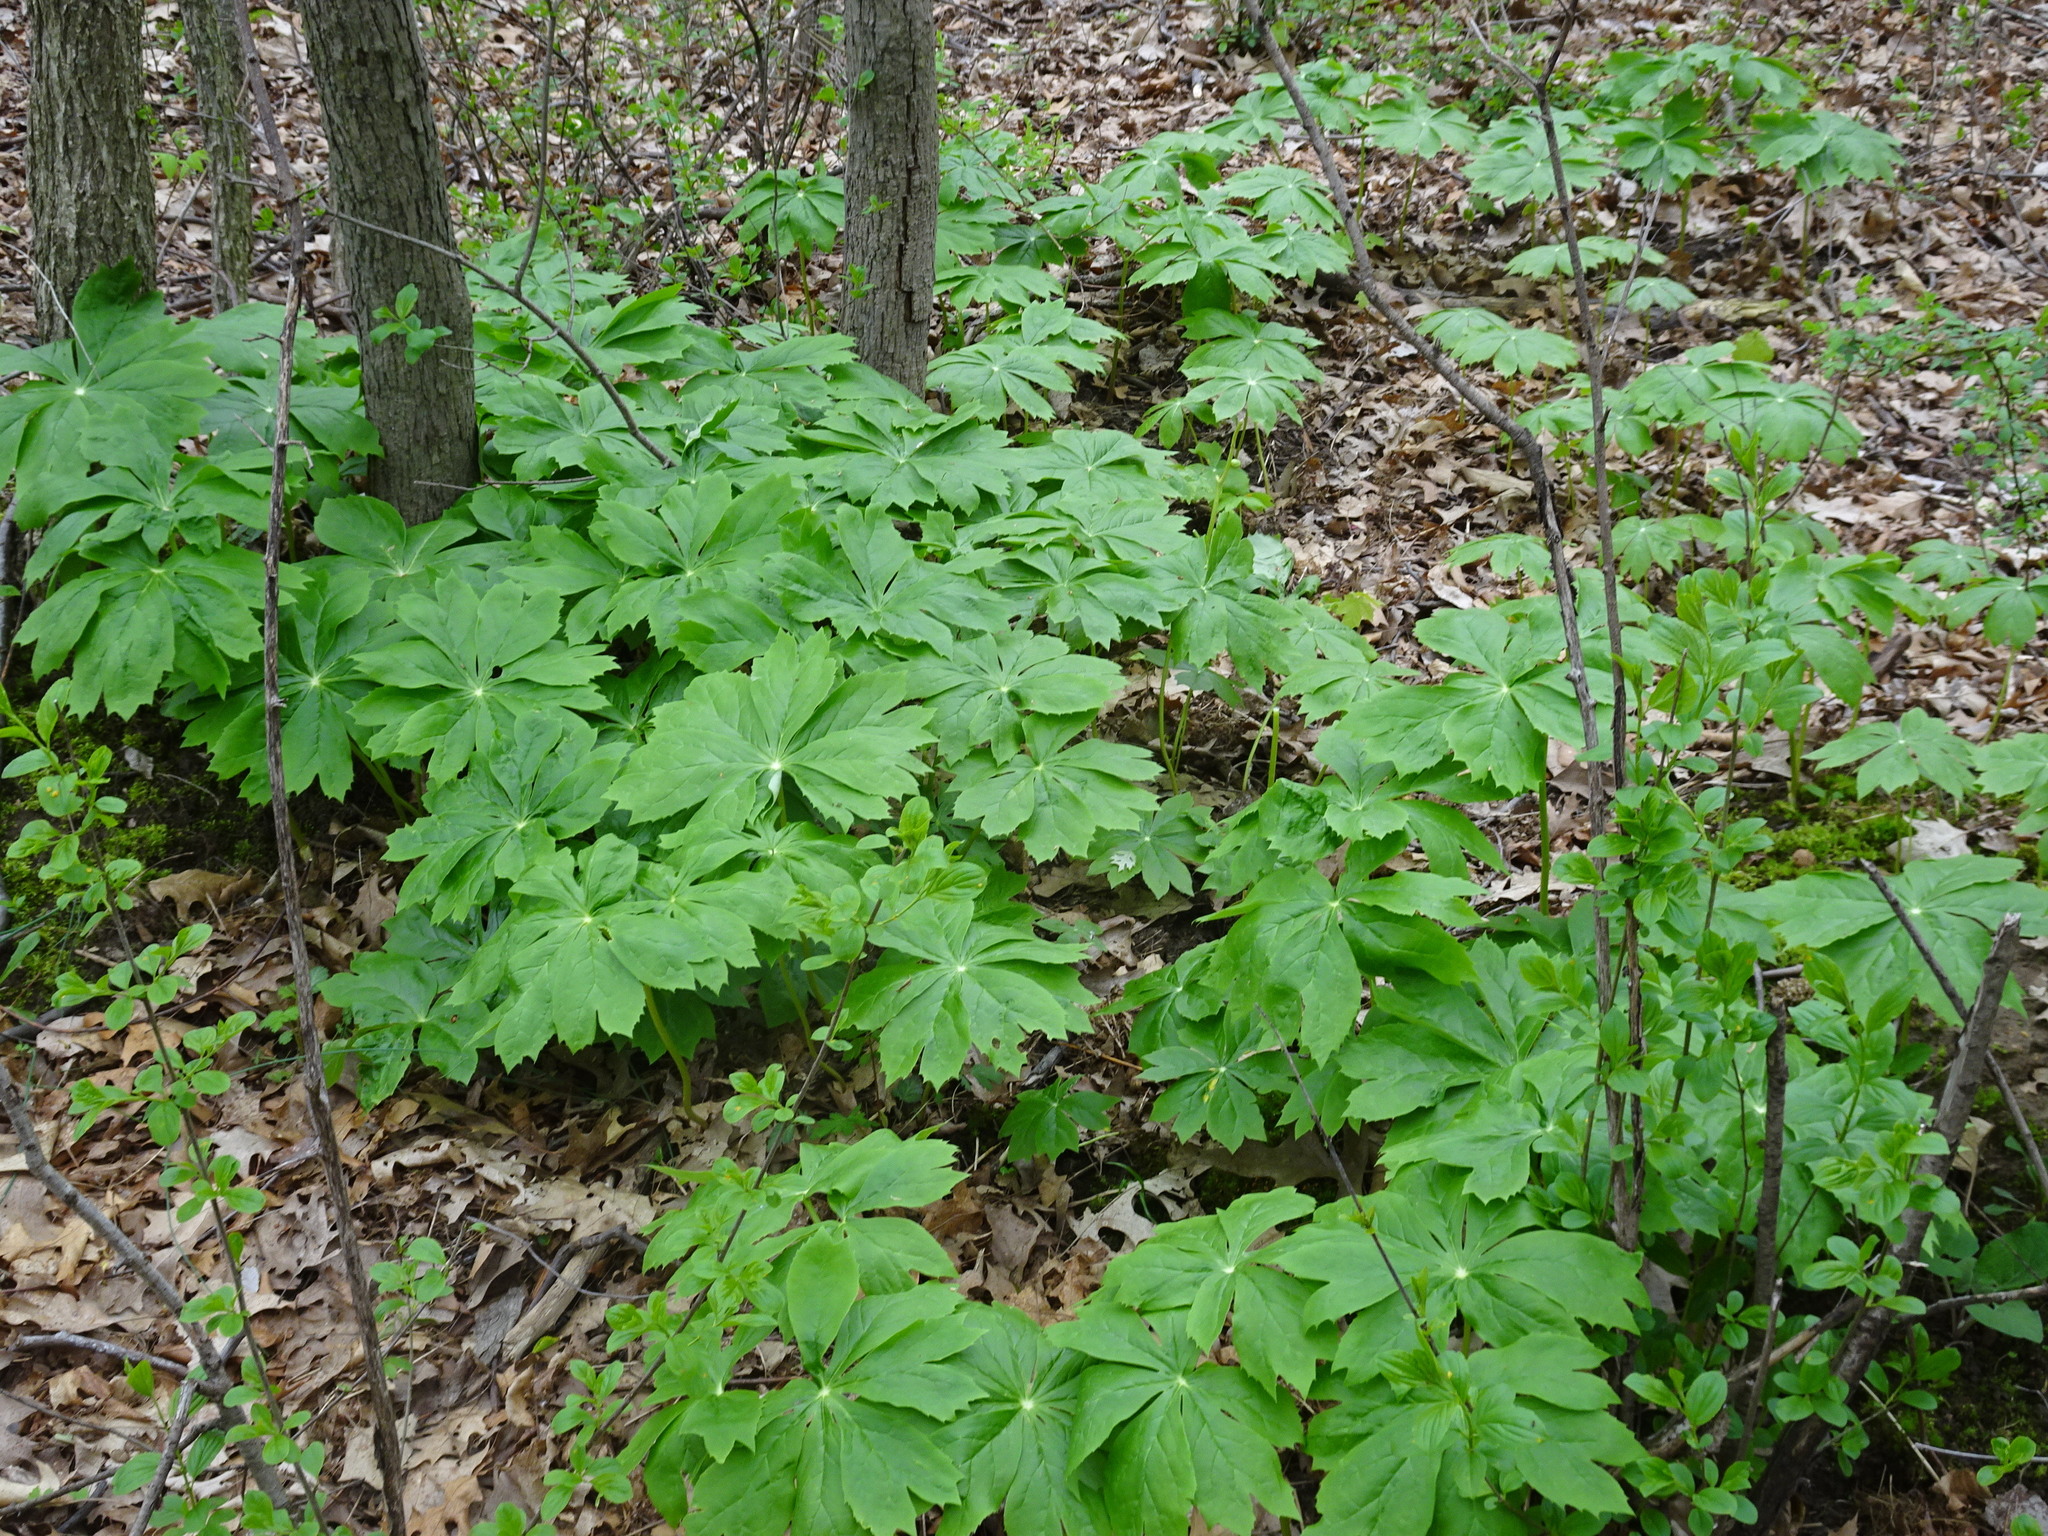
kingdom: Plantae
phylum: Tracheophyta
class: Magnoliopsida
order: Ranunculales
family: Berberidaceae
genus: Podophyllum
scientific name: Podophyllum peltatum
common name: Wild mandrake
